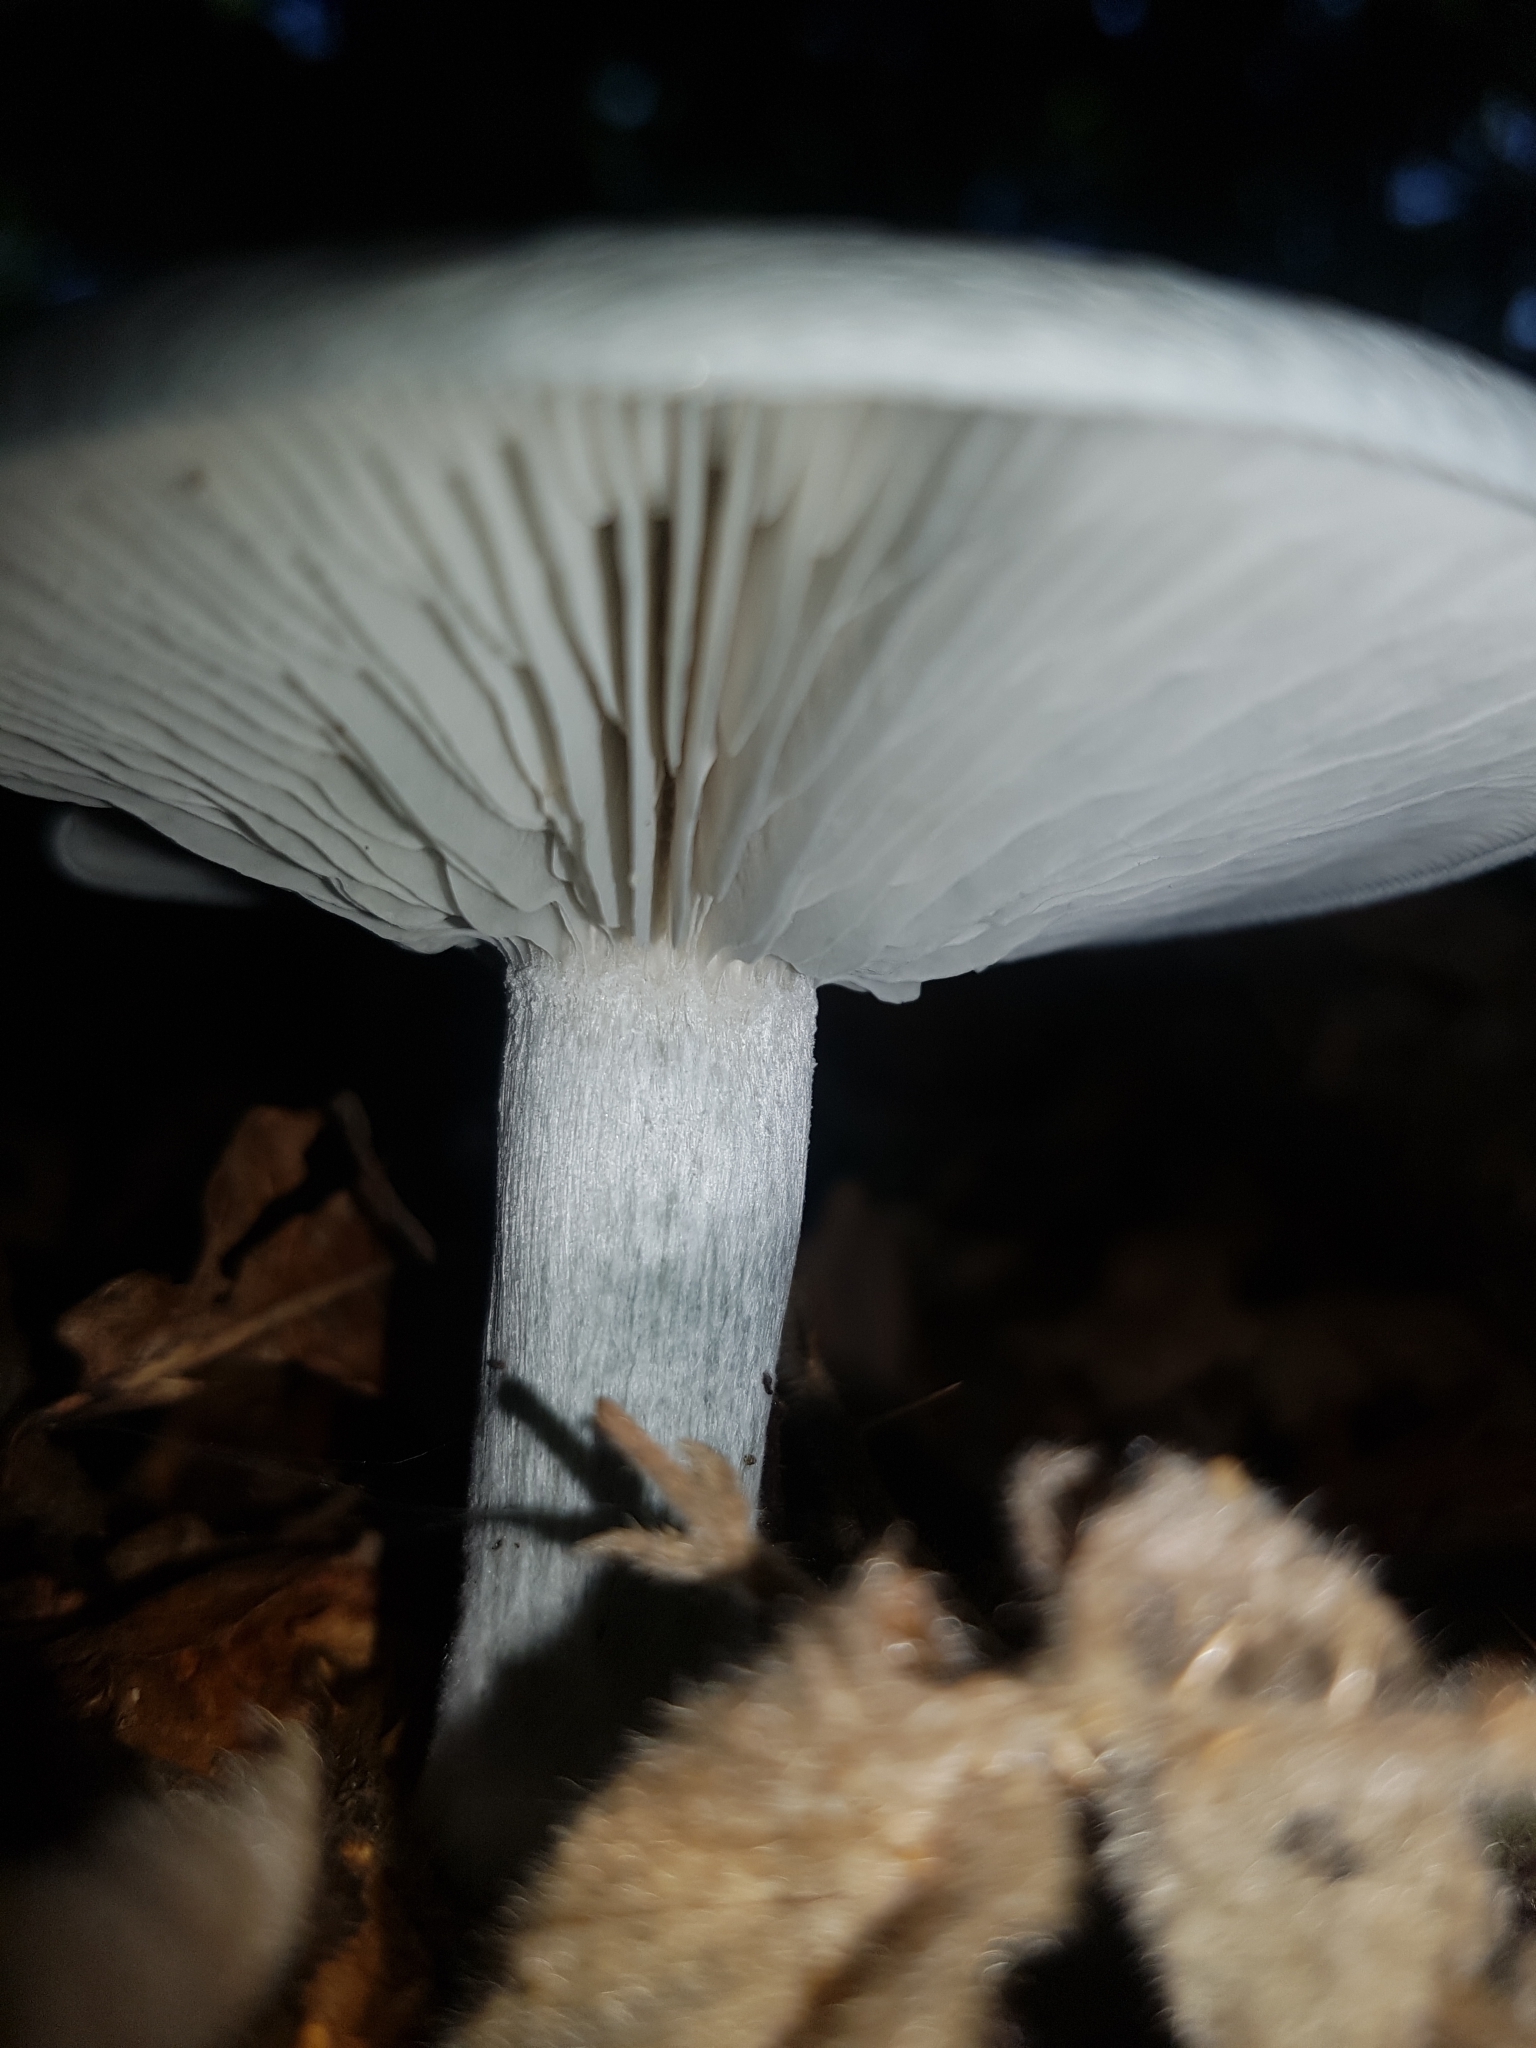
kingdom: Fungi
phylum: Basidiomycota
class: Agaricomycetes
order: Agaricales
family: Tricholomataceae
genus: Collybia
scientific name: Collybia
